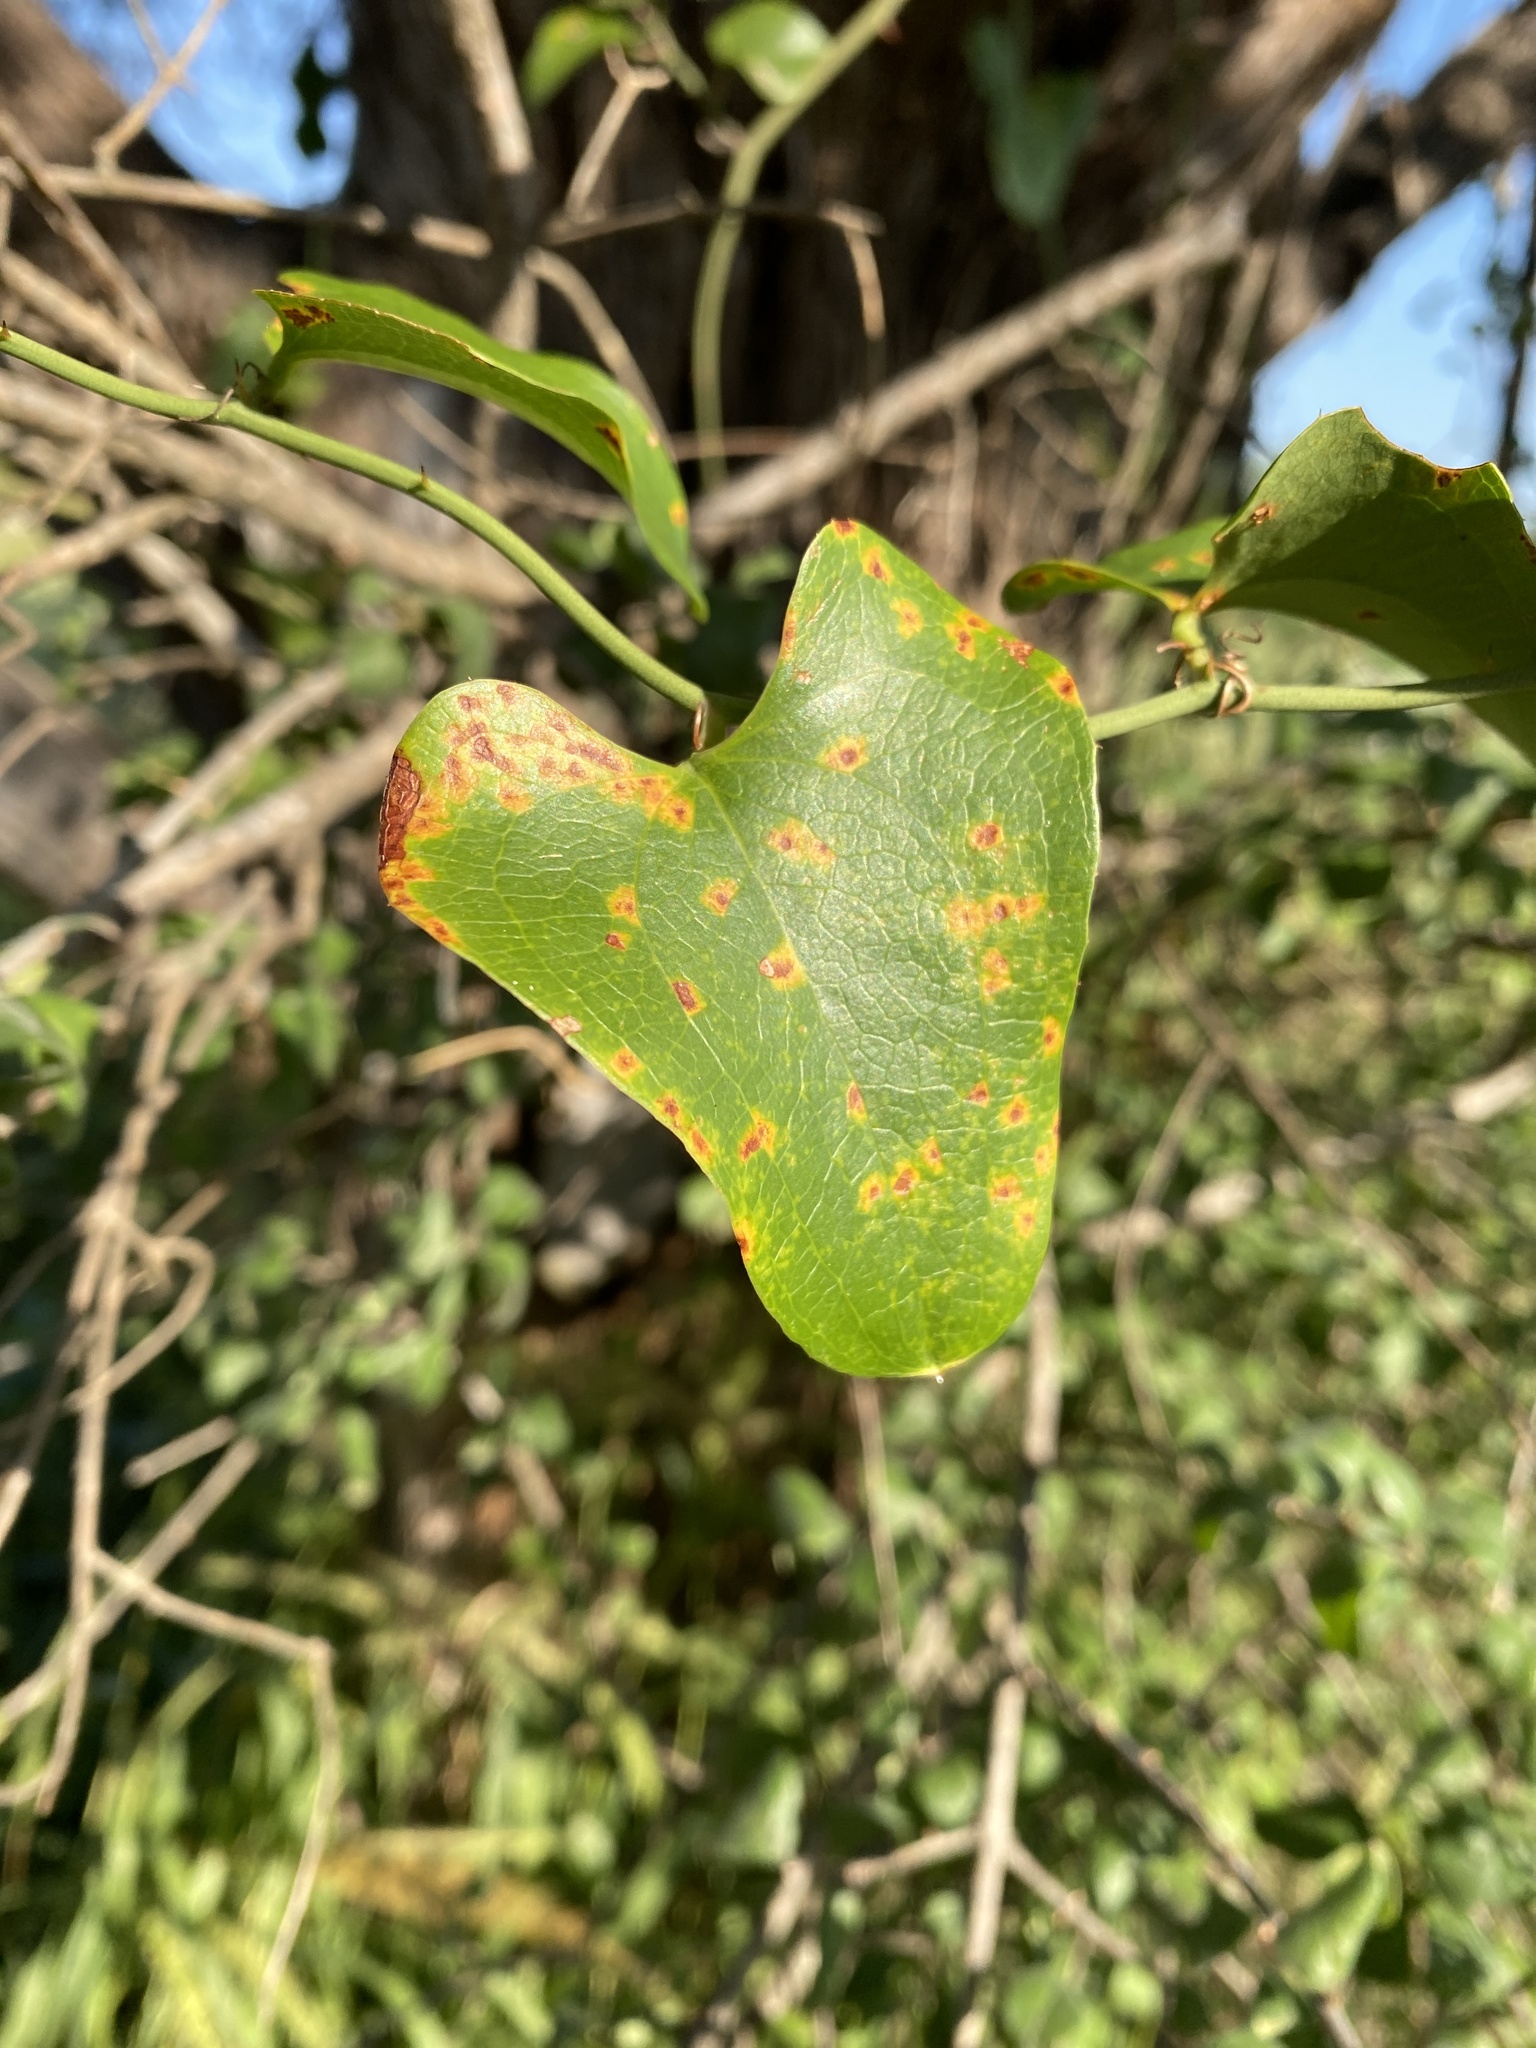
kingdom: Plantae
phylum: Tracheophyta
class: Liliopsida
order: Liliales
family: Smilacaceae
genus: Smilax
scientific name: Smilax bona-nox
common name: Catbrier
